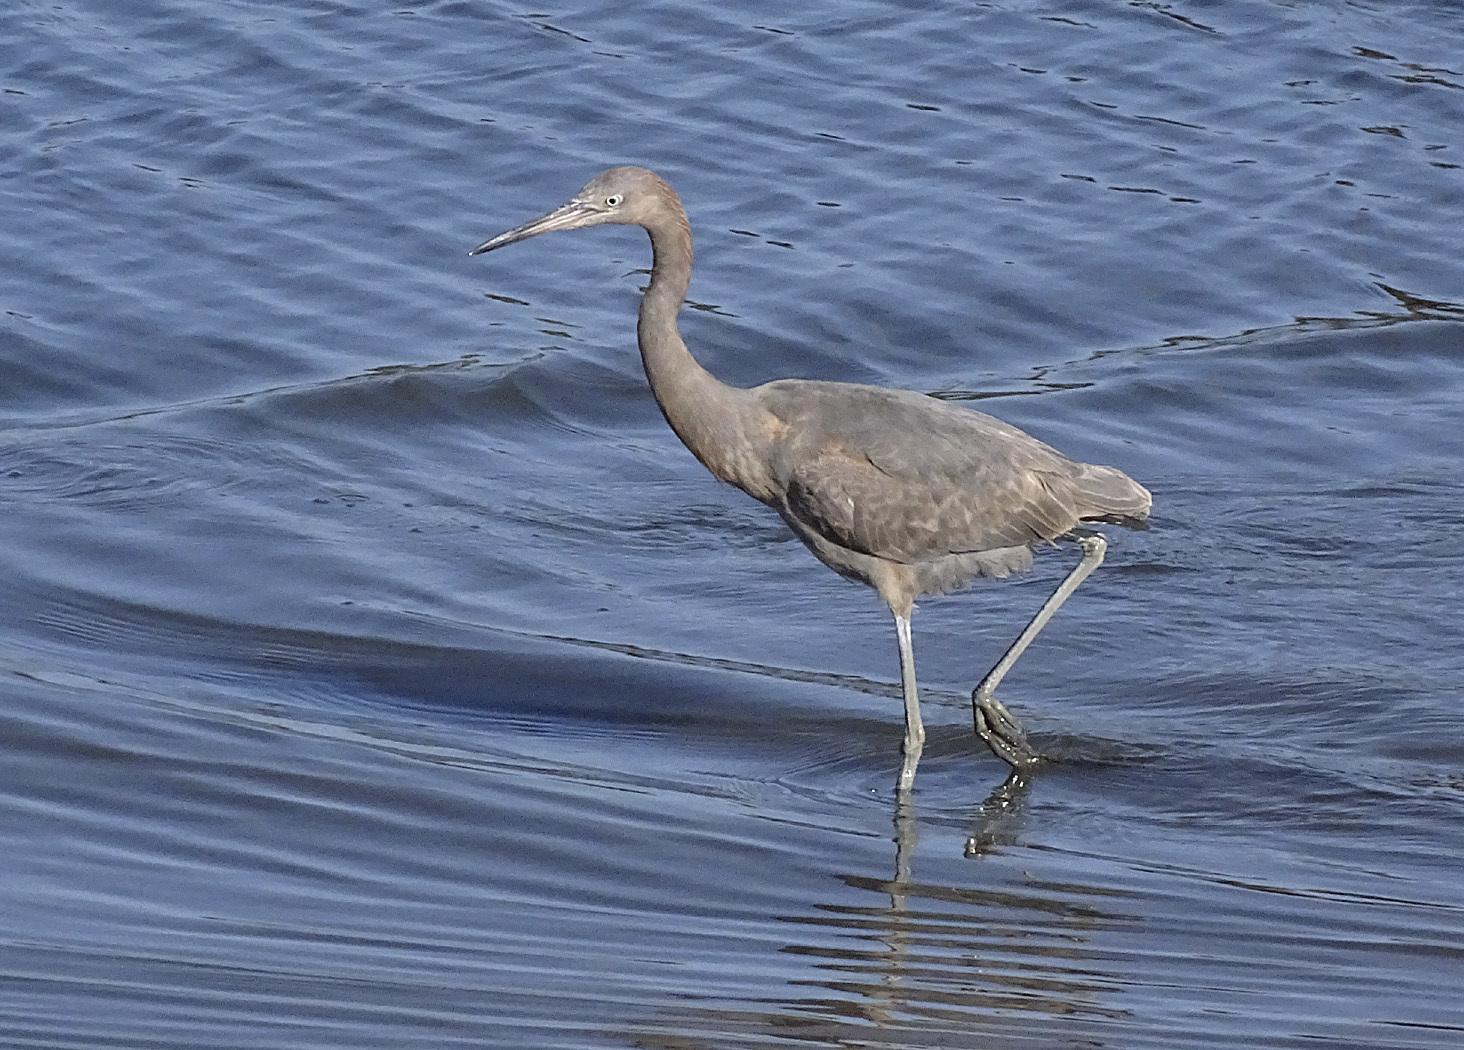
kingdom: Animalia
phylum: Chordata
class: Aves
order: Pelecaniformes
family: Ardeidae
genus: Egretta
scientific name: Egretta rufescens
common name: Reddish egret
